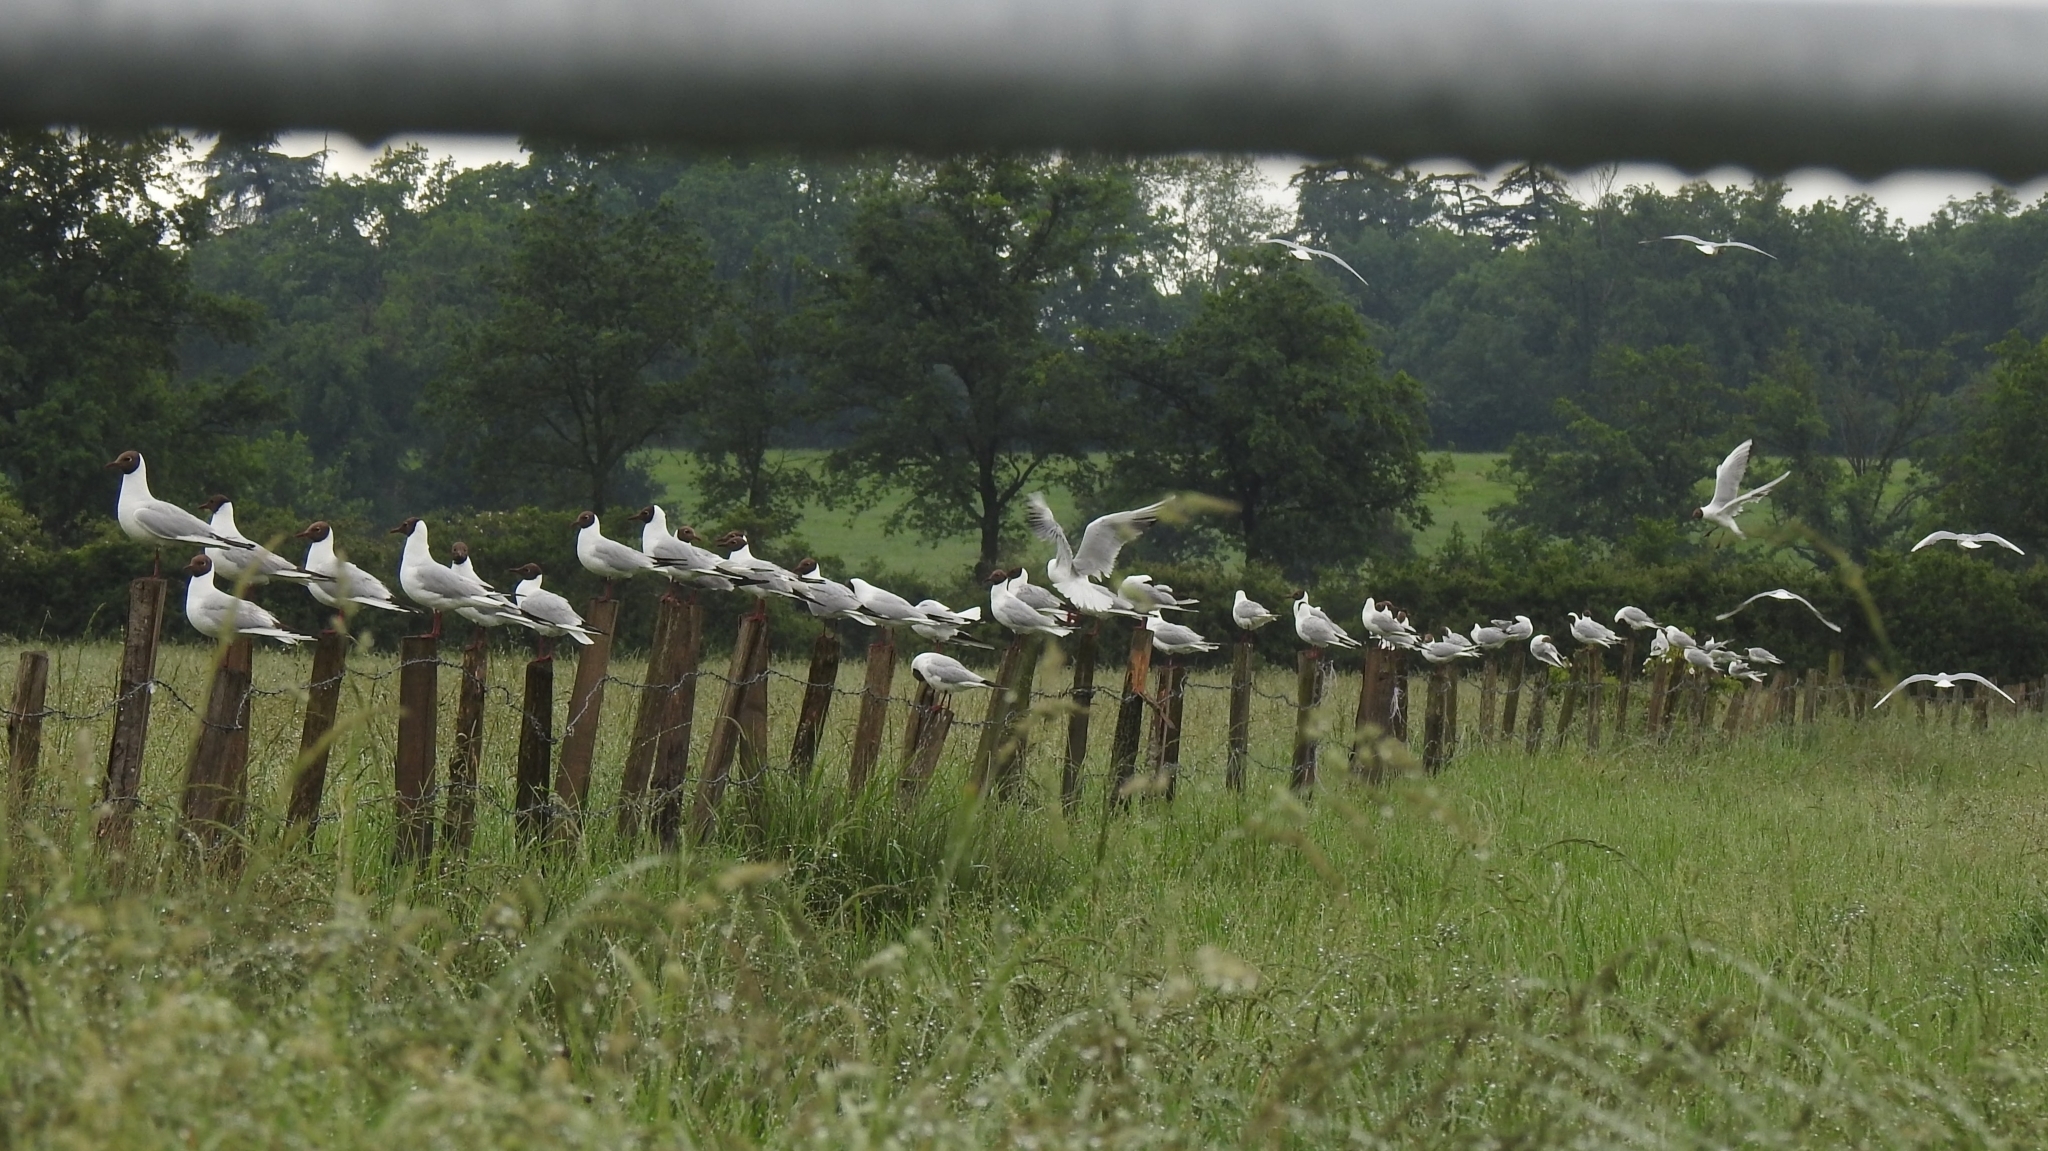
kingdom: Animalia
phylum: Chordata
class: Aves
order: Charadriiformes
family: Laridae
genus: Chroicocephalus
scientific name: Chroicocephalus ridibundus
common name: Black-headed gull
